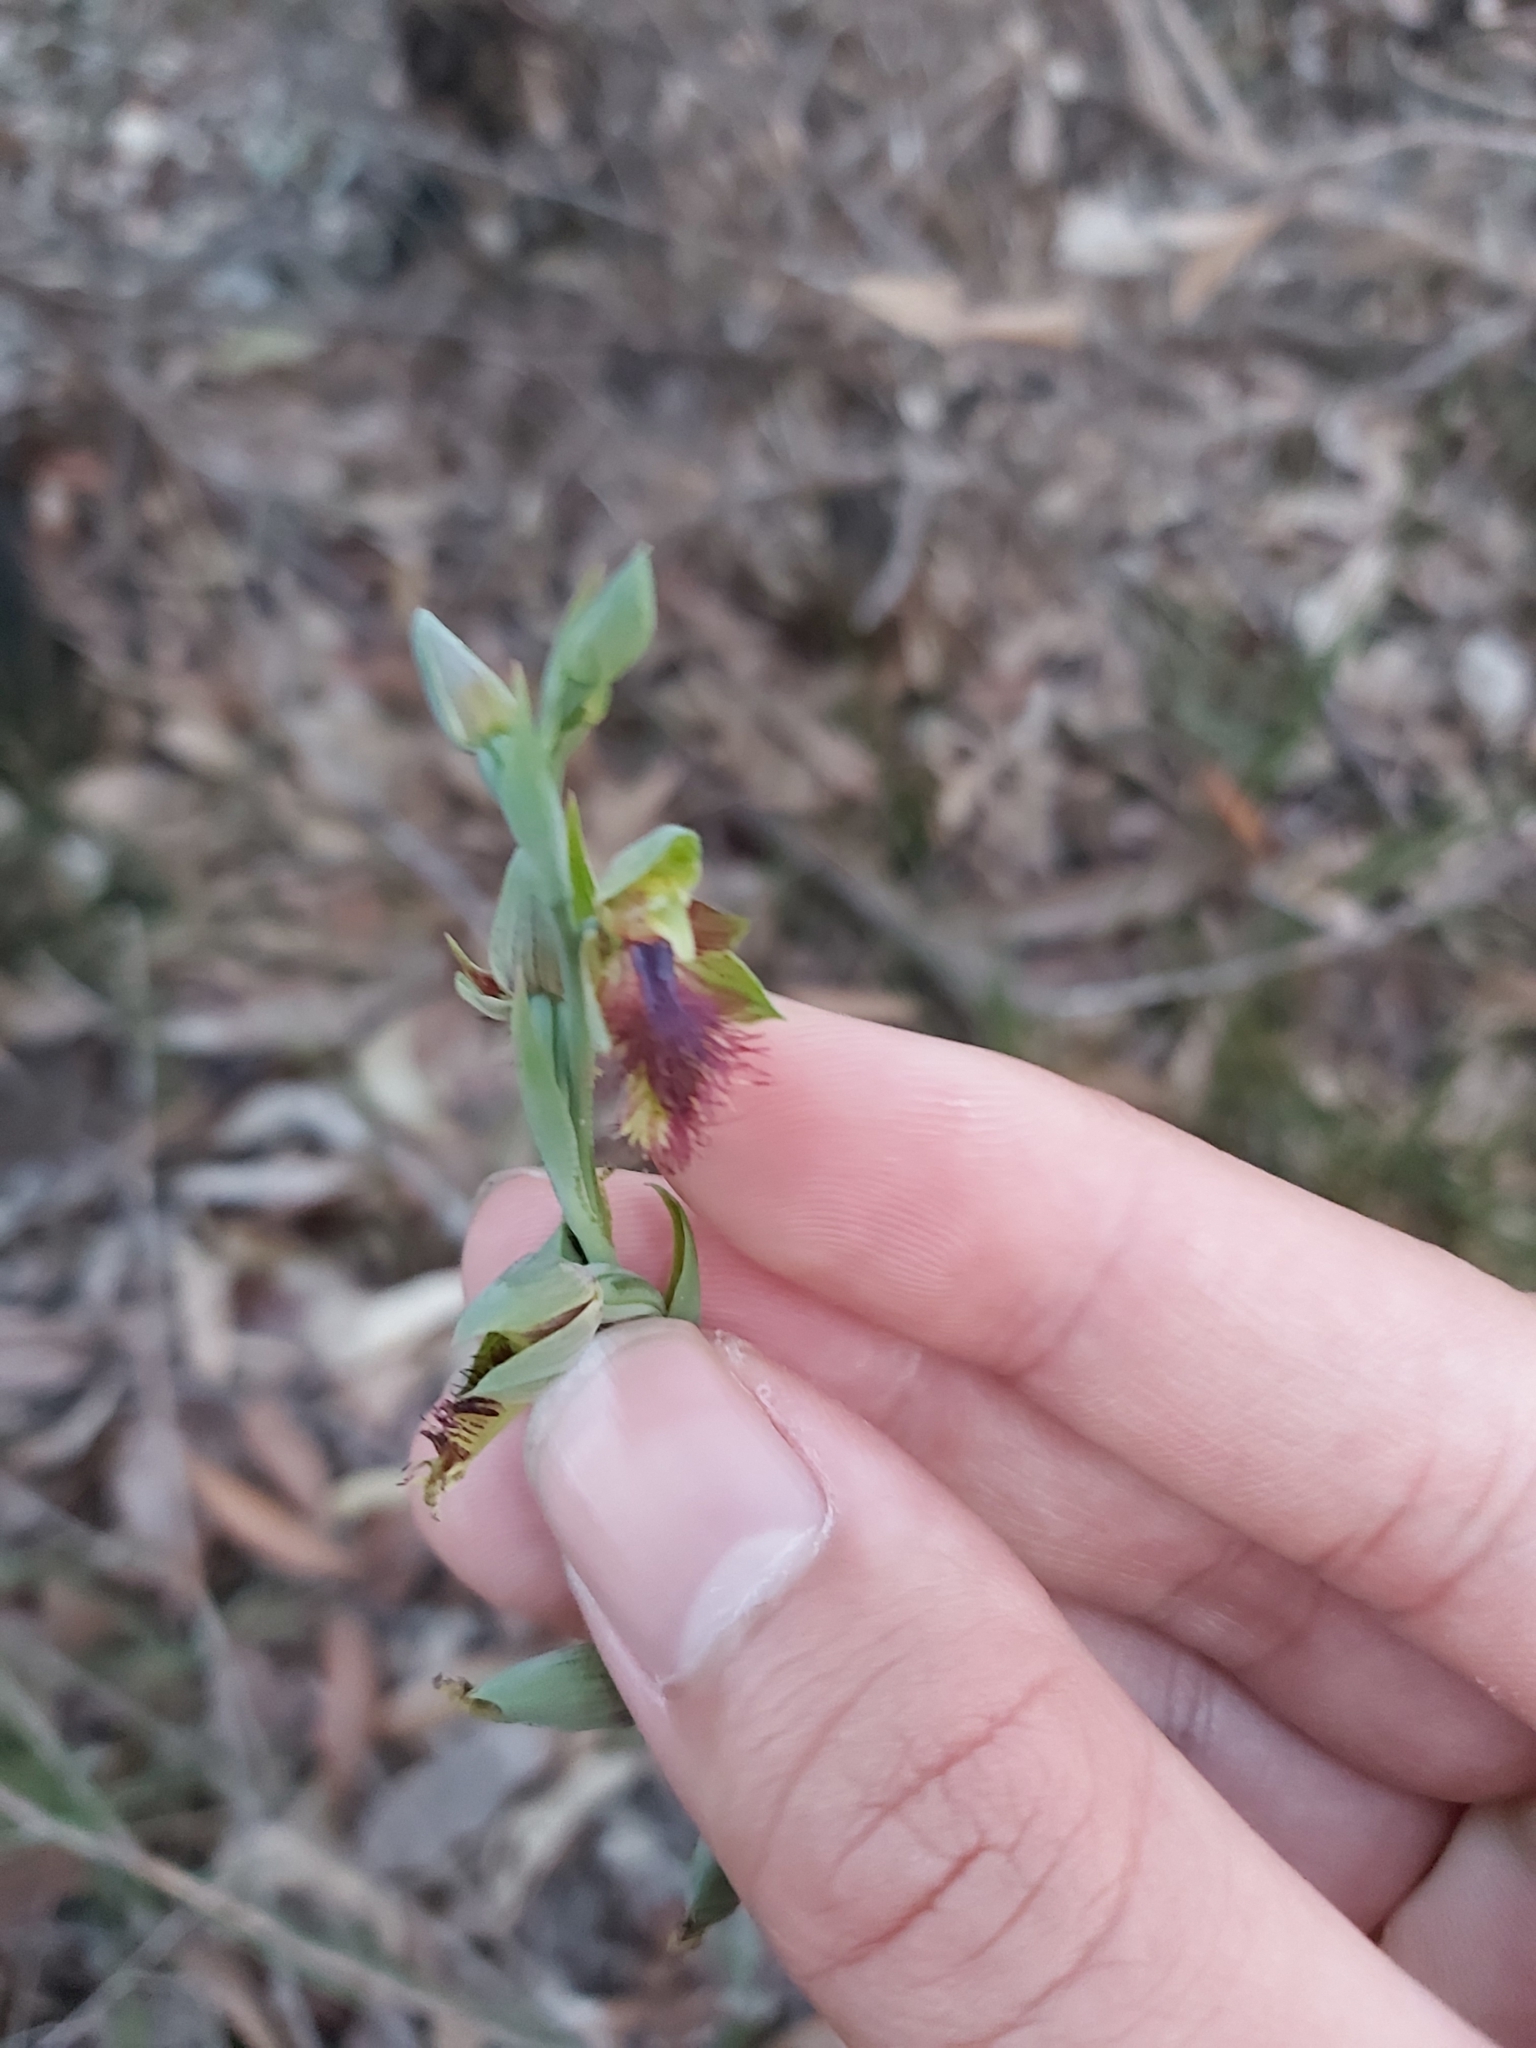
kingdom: Plantae
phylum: Tracheophyta
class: Liliopsida
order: Asparagales
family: Orchidaceae
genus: Calochilus
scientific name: Calochilus campestris
